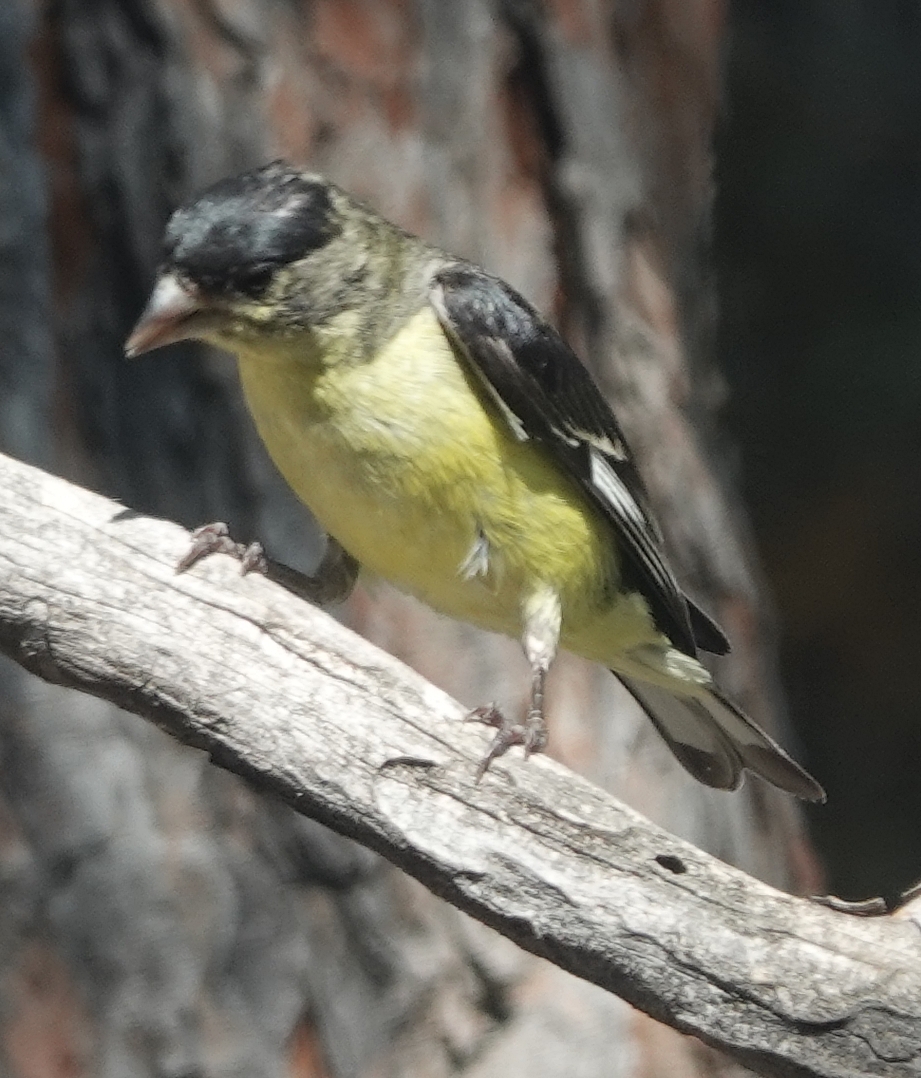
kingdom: Animalia
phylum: Chordata
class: Aves
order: Passeriformes
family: Fringillidae
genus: Spinus
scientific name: Spinus psaltria
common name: Lesser goldfinch
